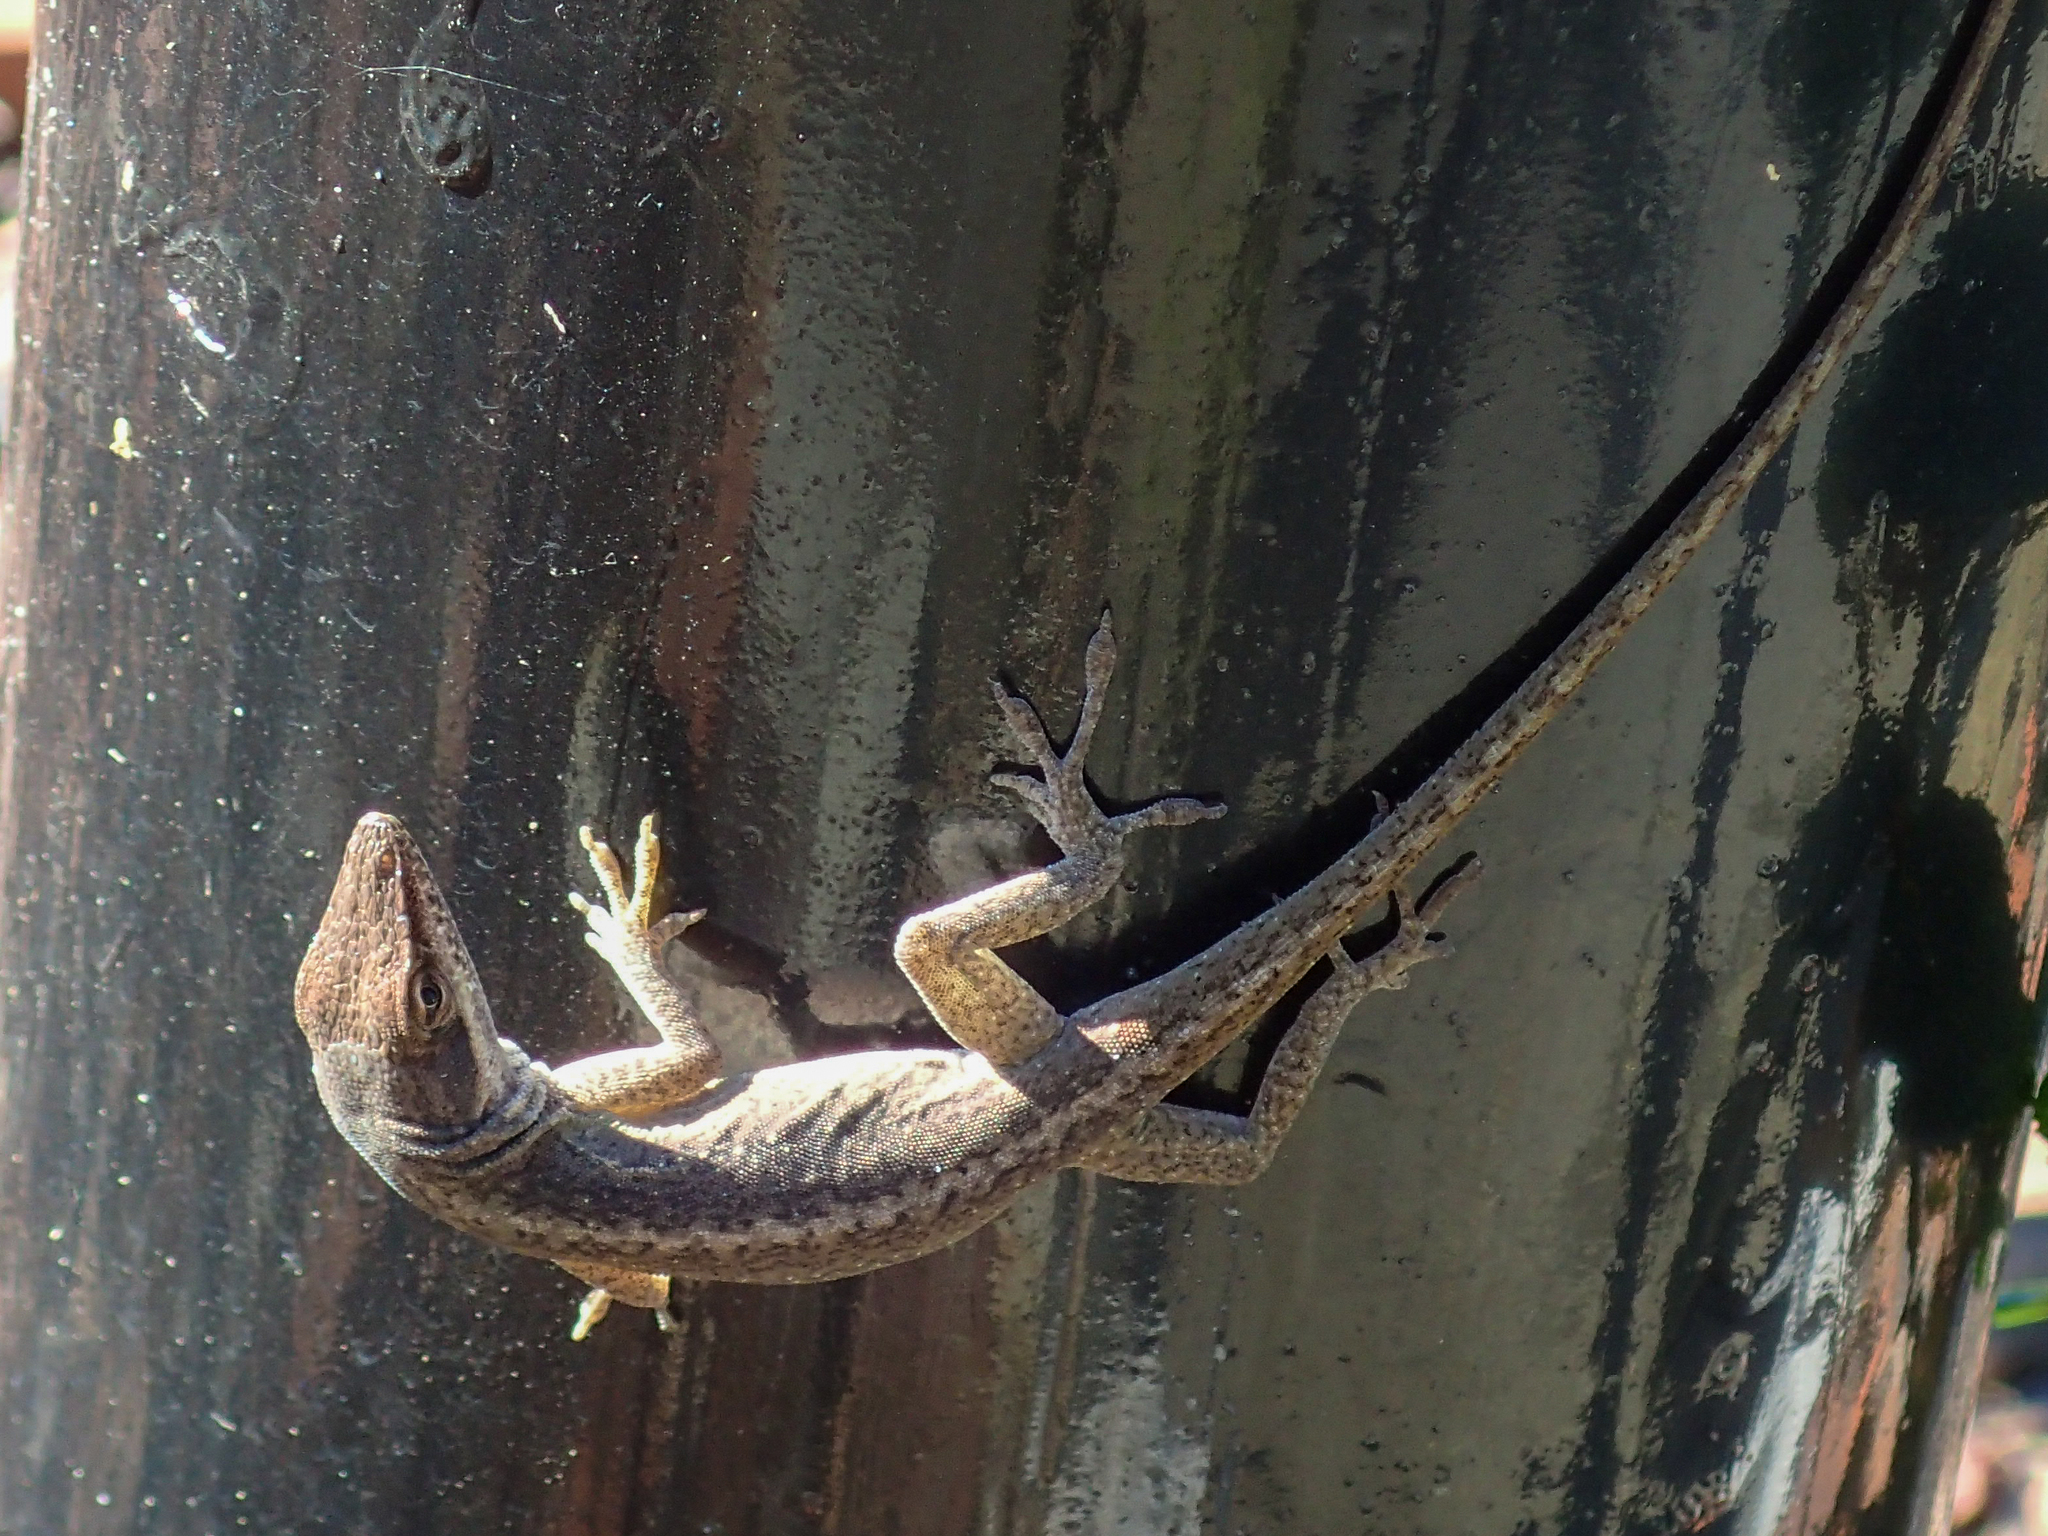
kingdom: Animalia
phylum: Chordata
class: Squamata
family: Dactyloidae
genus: Anolis
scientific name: Anolis carolinensis
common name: Green anole
